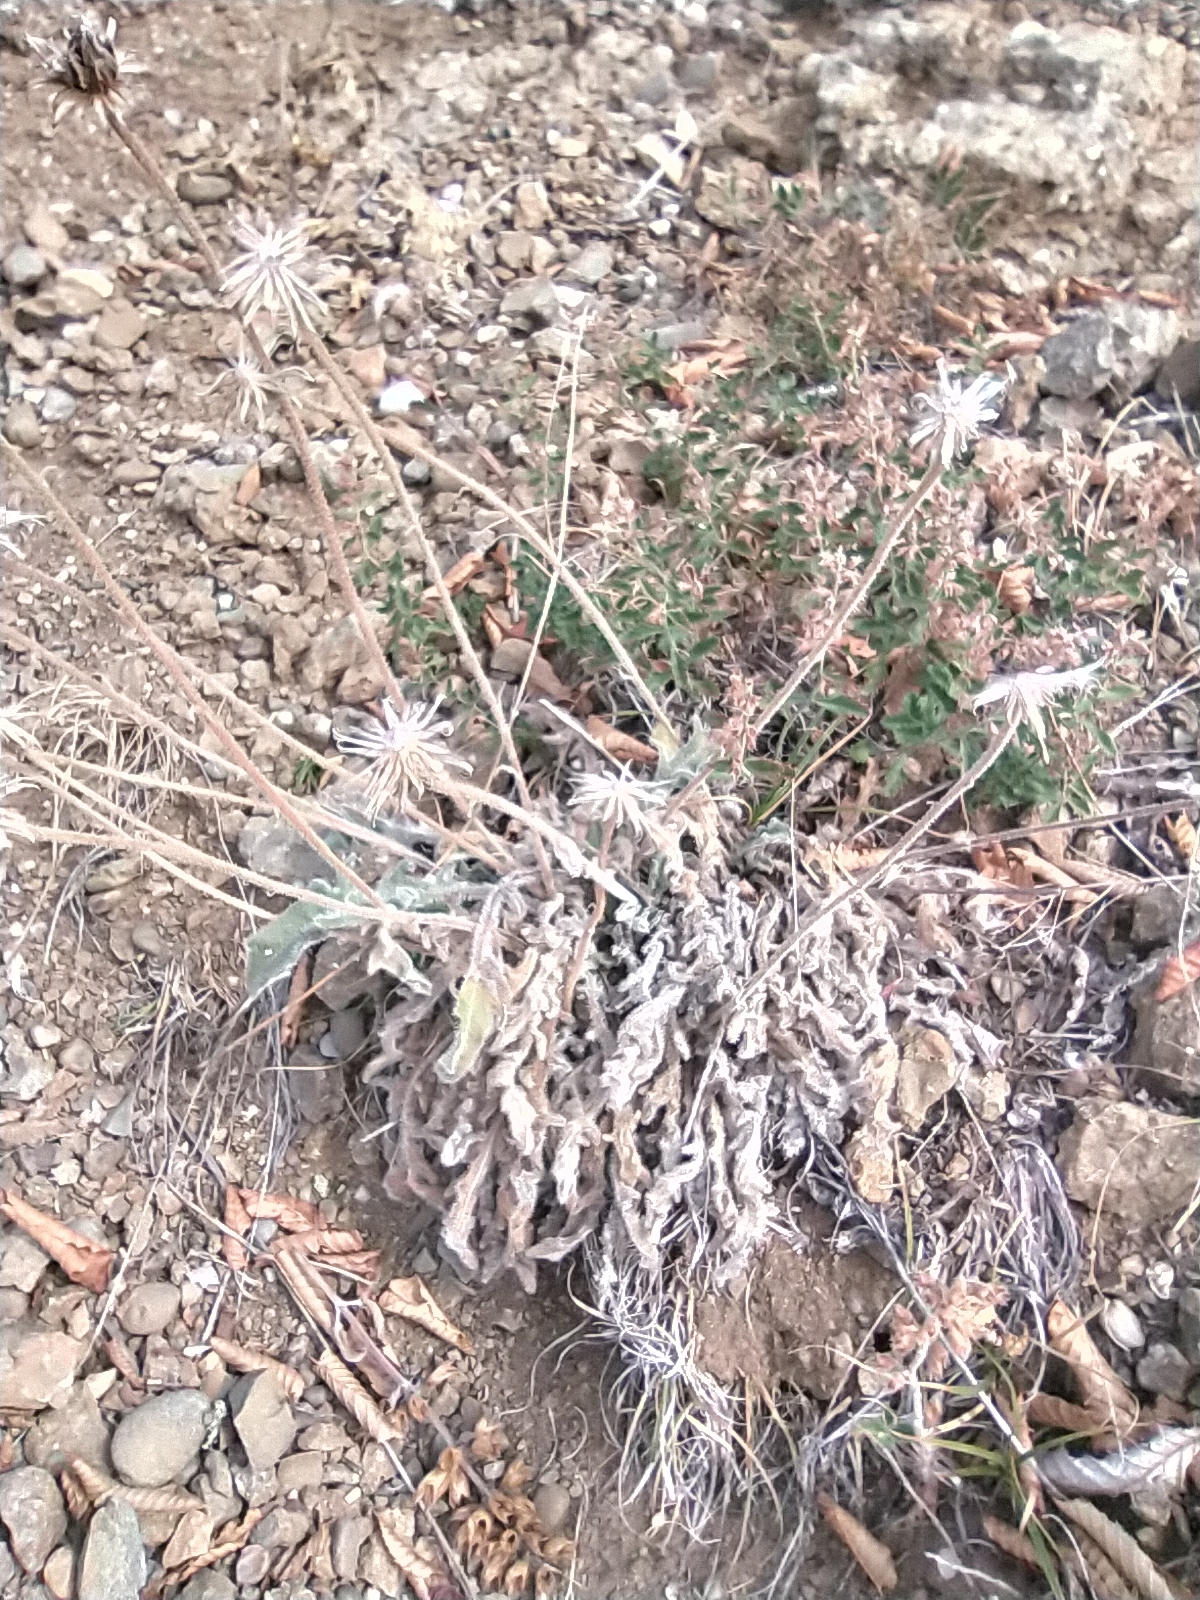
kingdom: Plantae
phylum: Tracheophyta
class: Magnoliopsida
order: Asterales
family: Asteraceae
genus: Leontodon
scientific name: Leontodon biscutellifolius
